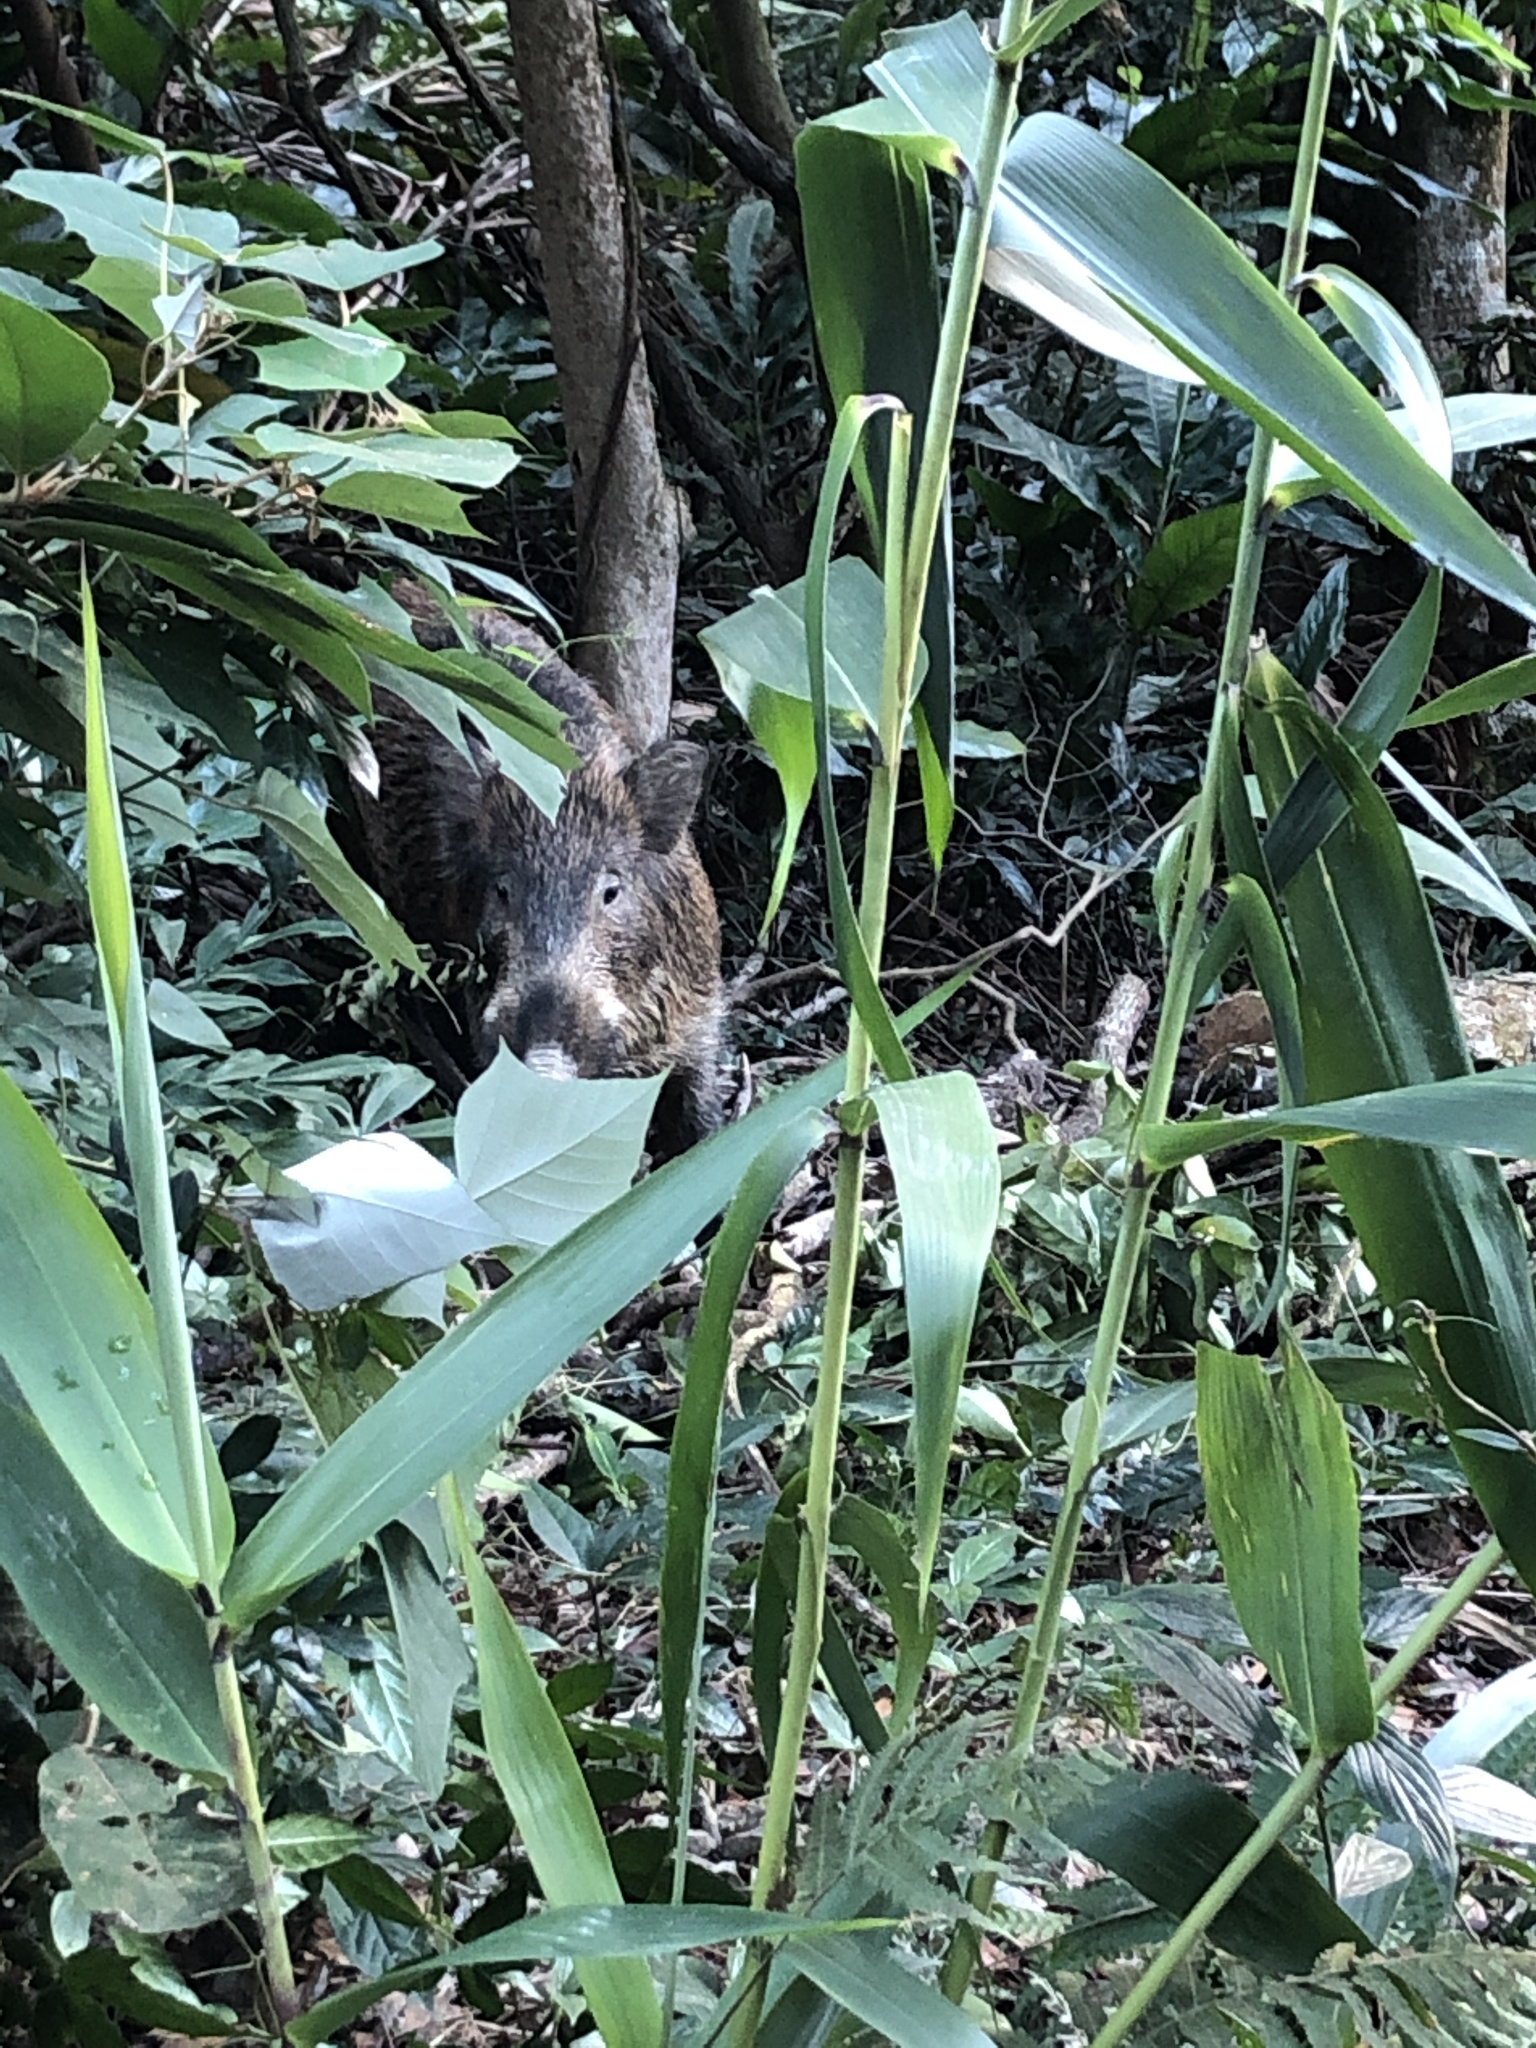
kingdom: Animalia
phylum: Chordata
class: Mammalia
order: Artiodactyla
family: Suidae
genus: Sus
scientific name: Sus scrofa
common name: Wild boar
